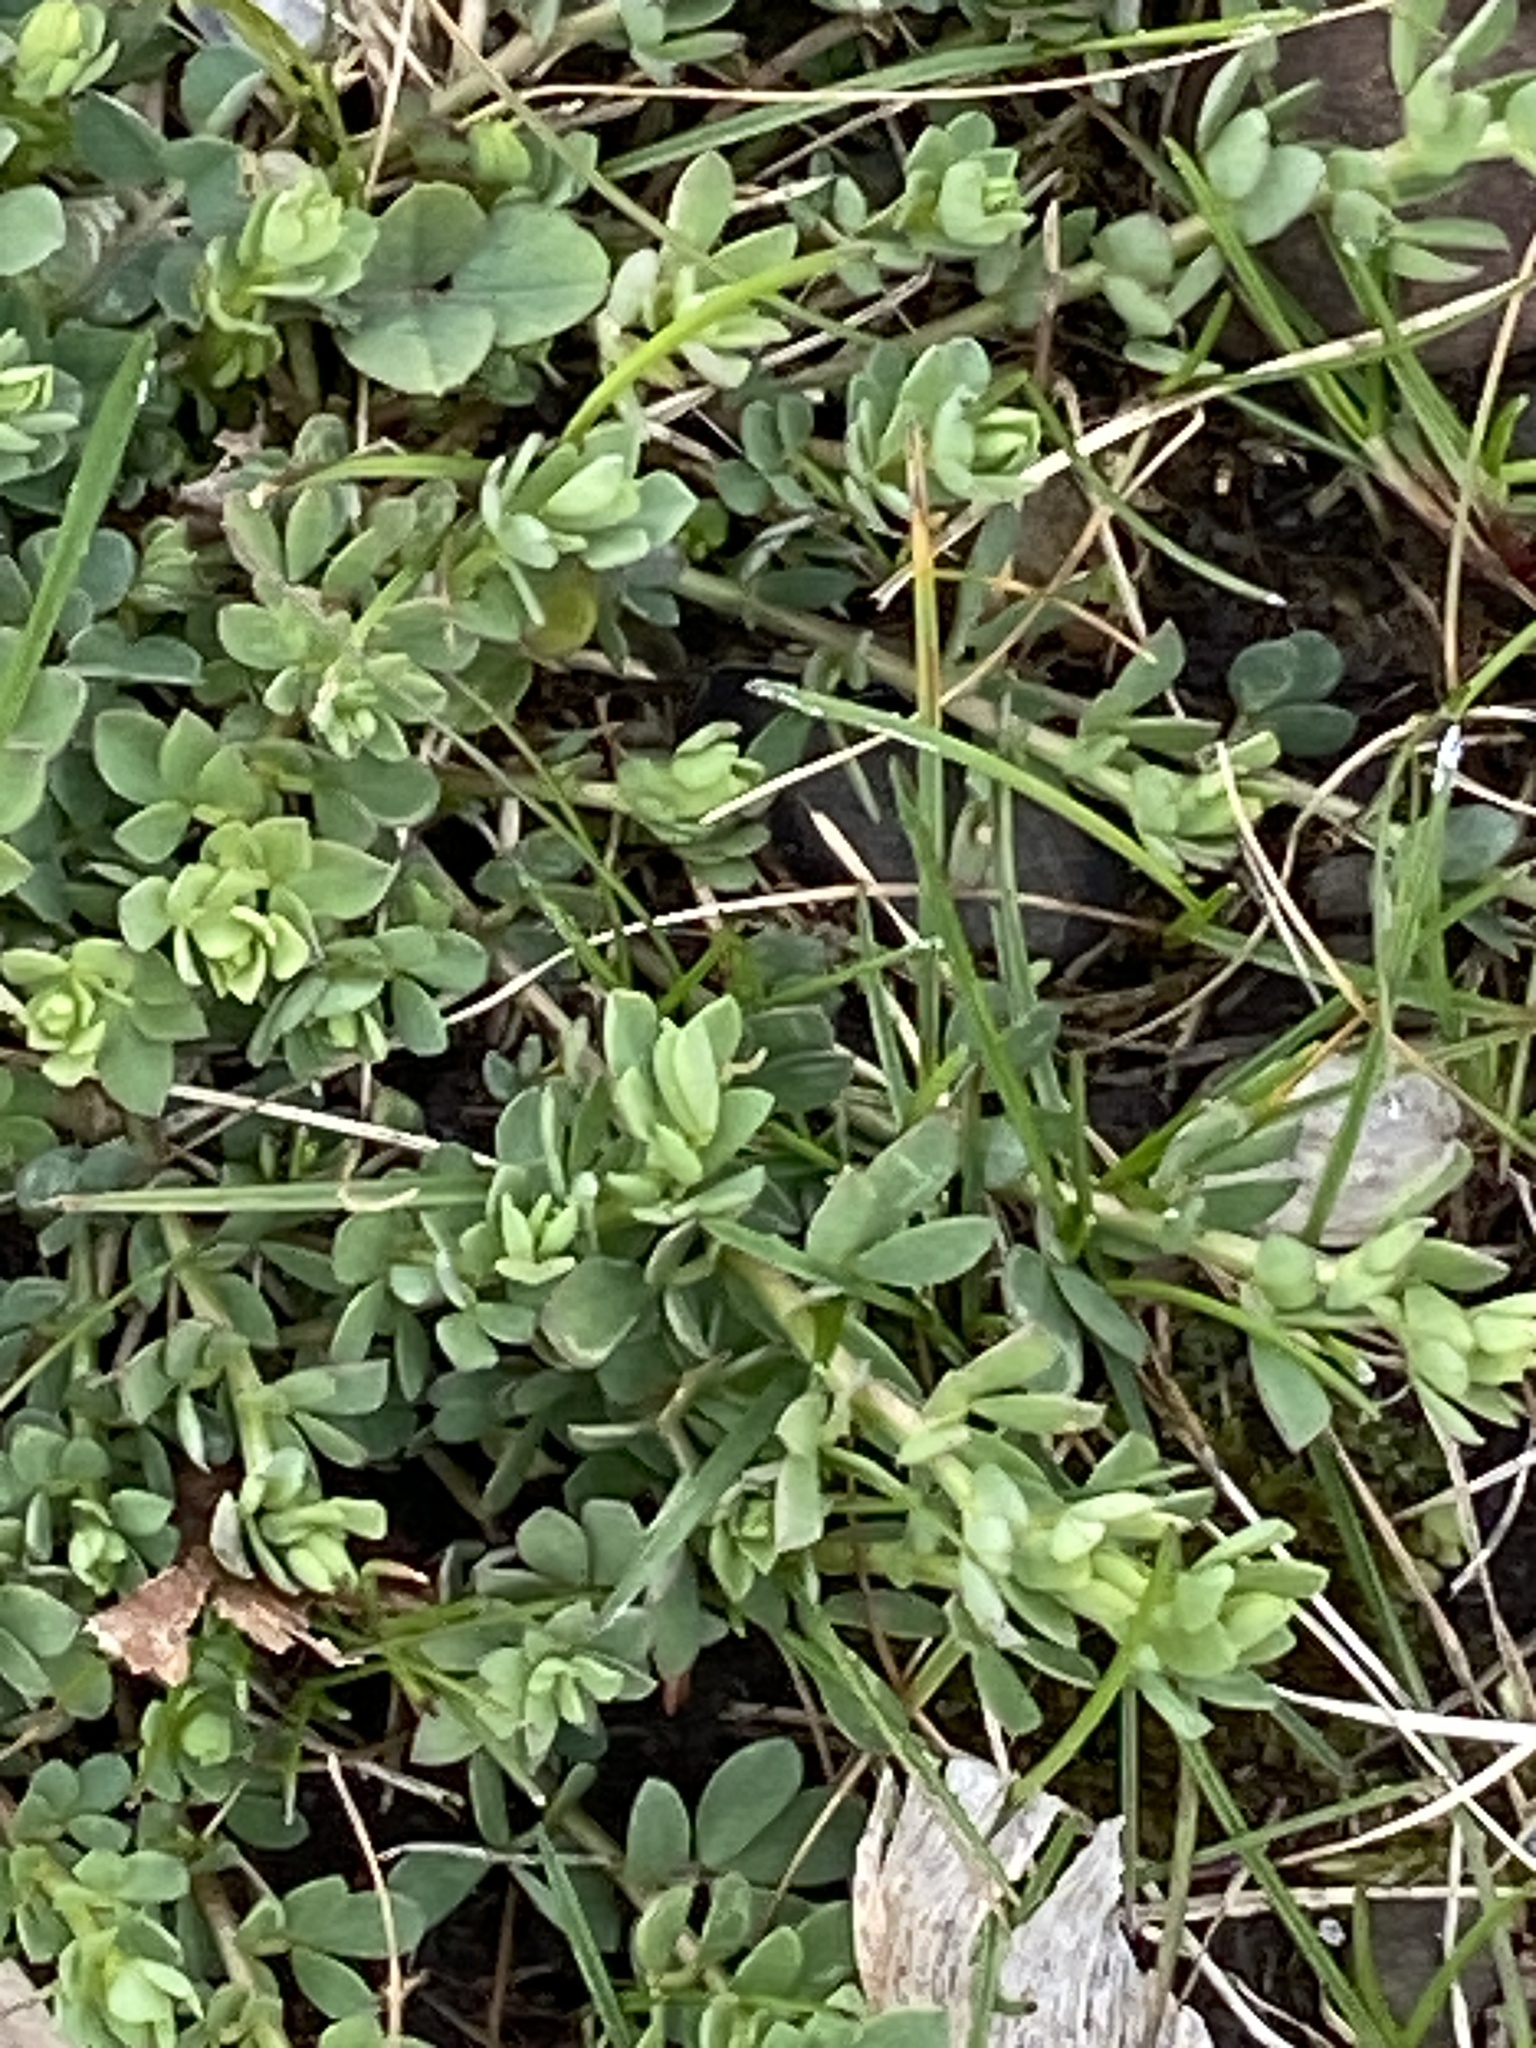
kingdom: Plantae
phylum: Tracheophyta
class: Magnoliopsida
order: Fabales
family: Fabaceae
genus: Lotus
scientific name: Lotus corniculatus
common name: Common bird's-foot-trefoil
